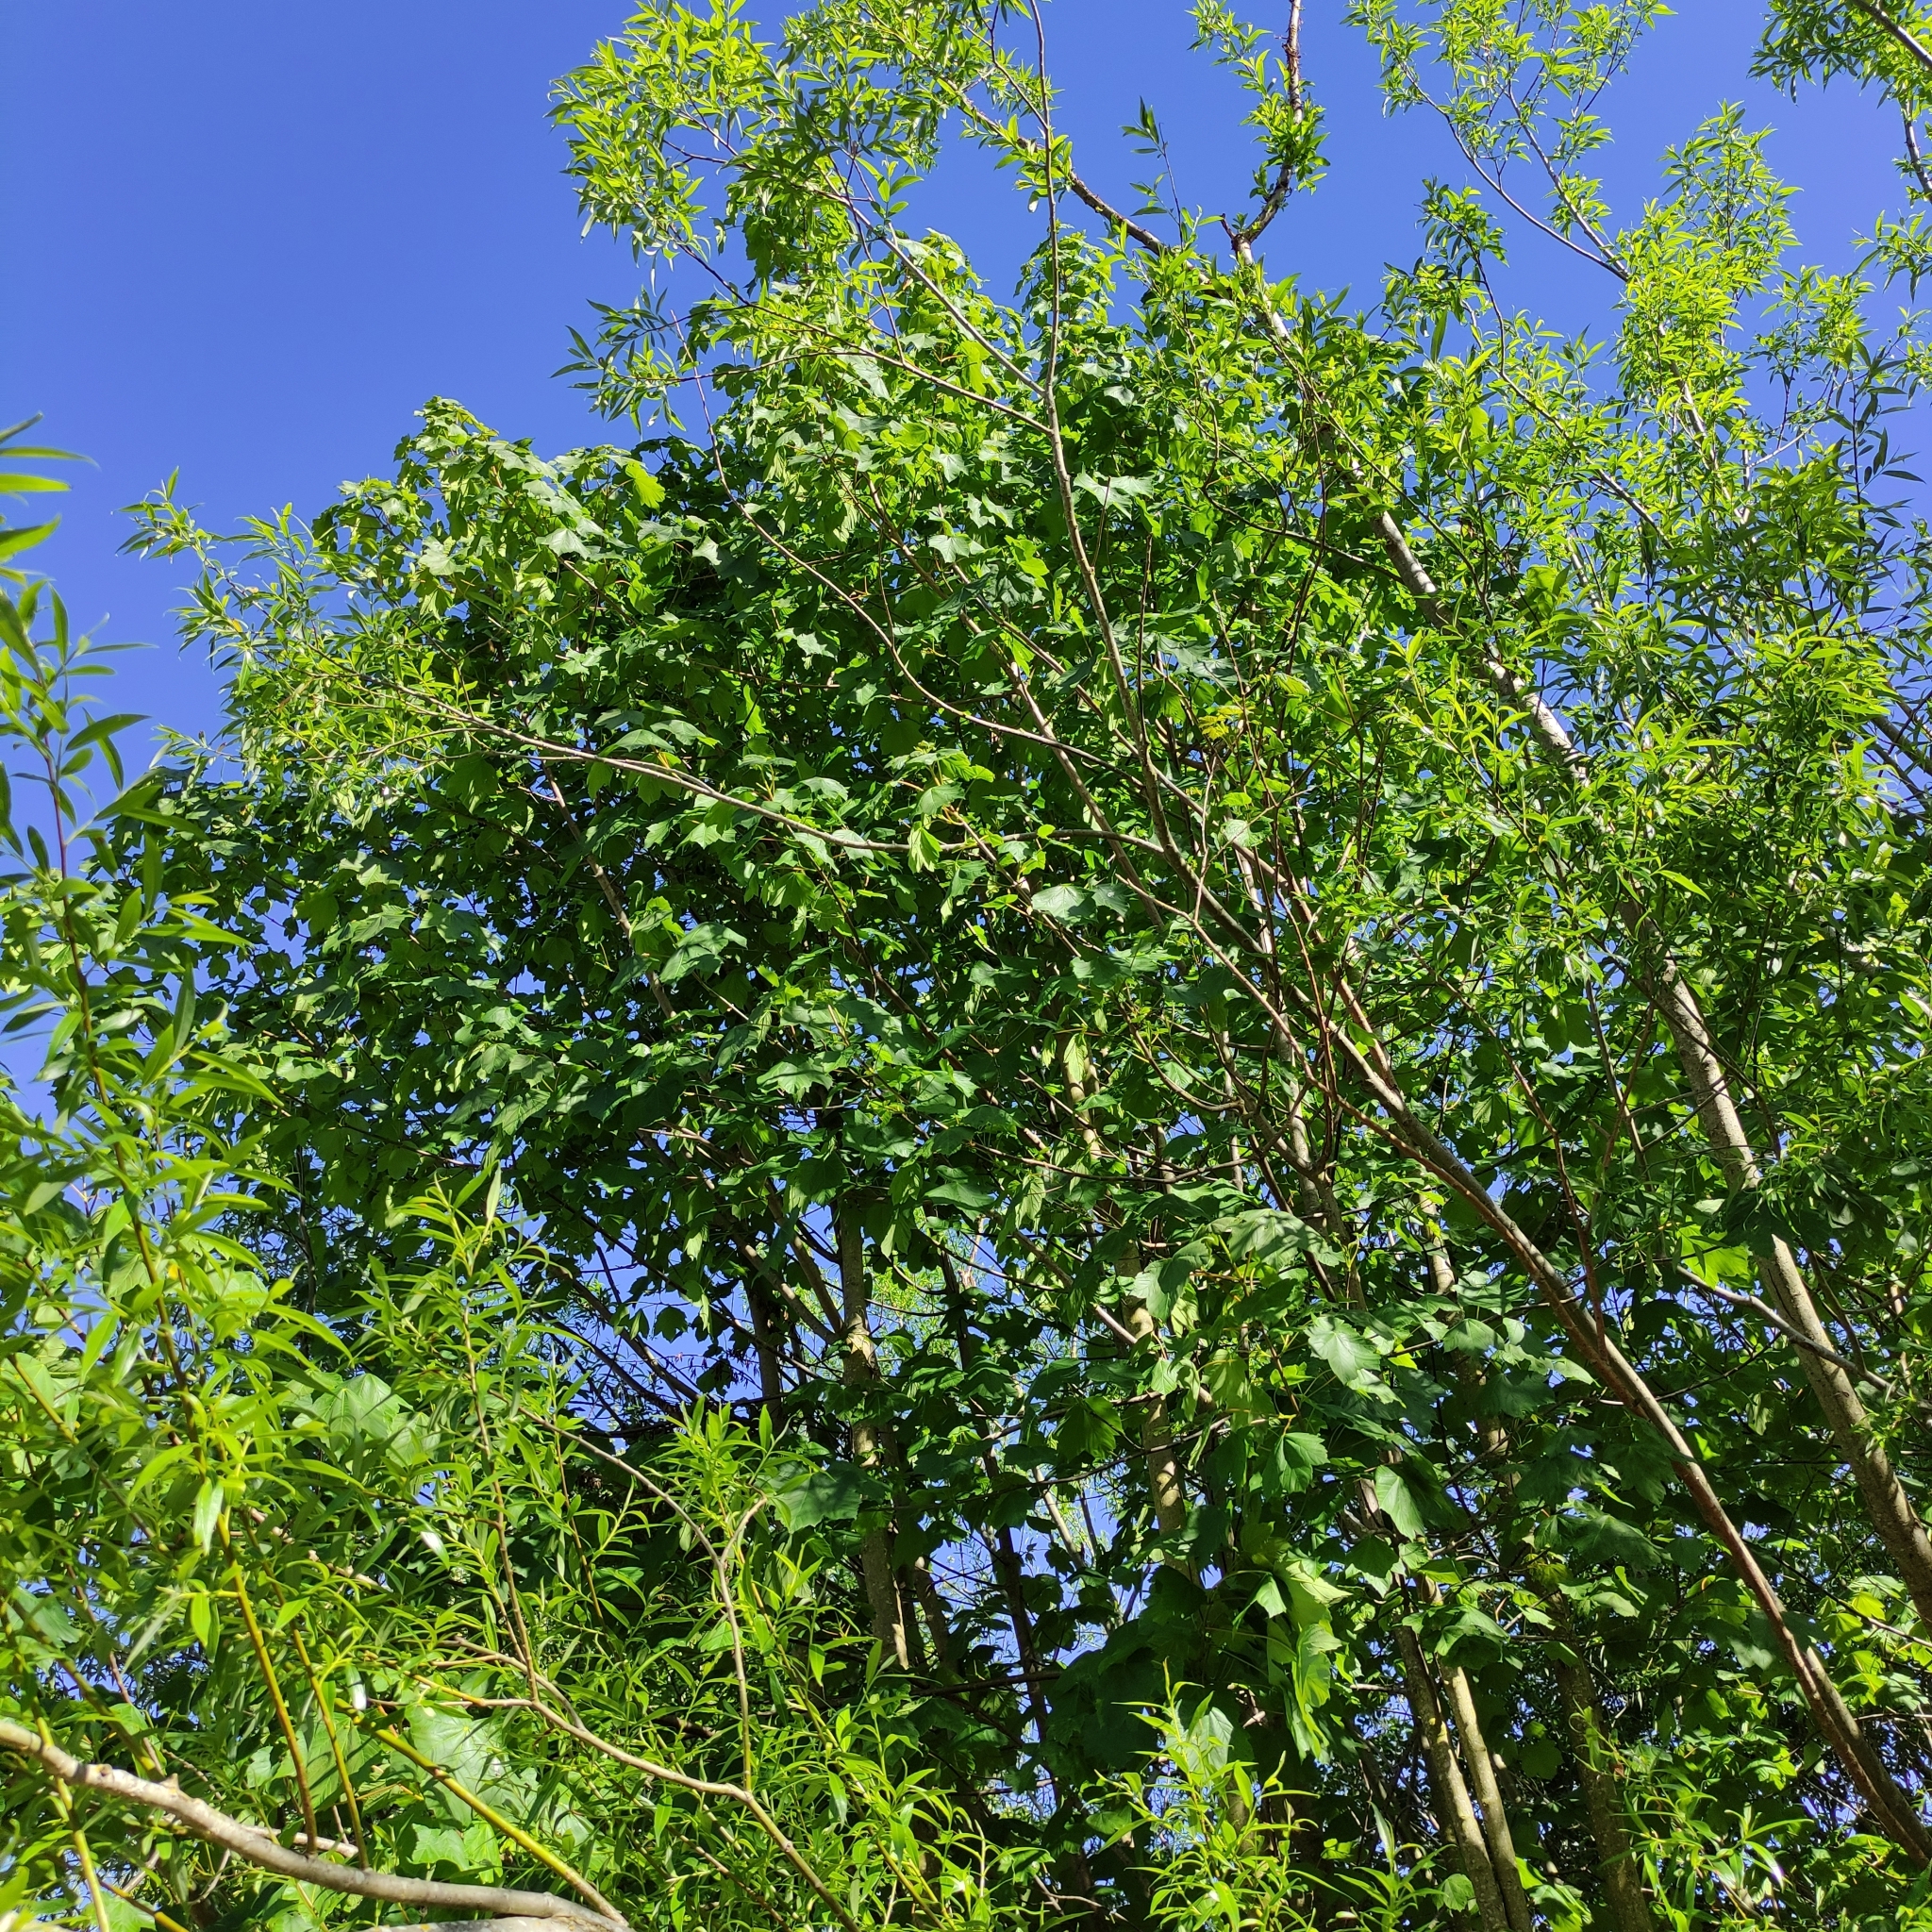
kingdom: Plantae
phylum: Tracheophyta
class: Magnoliopsida
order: Sapindales
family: Sapindaceae
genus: Acer
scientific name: Acer pseudoplatanus
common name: Sycamore
